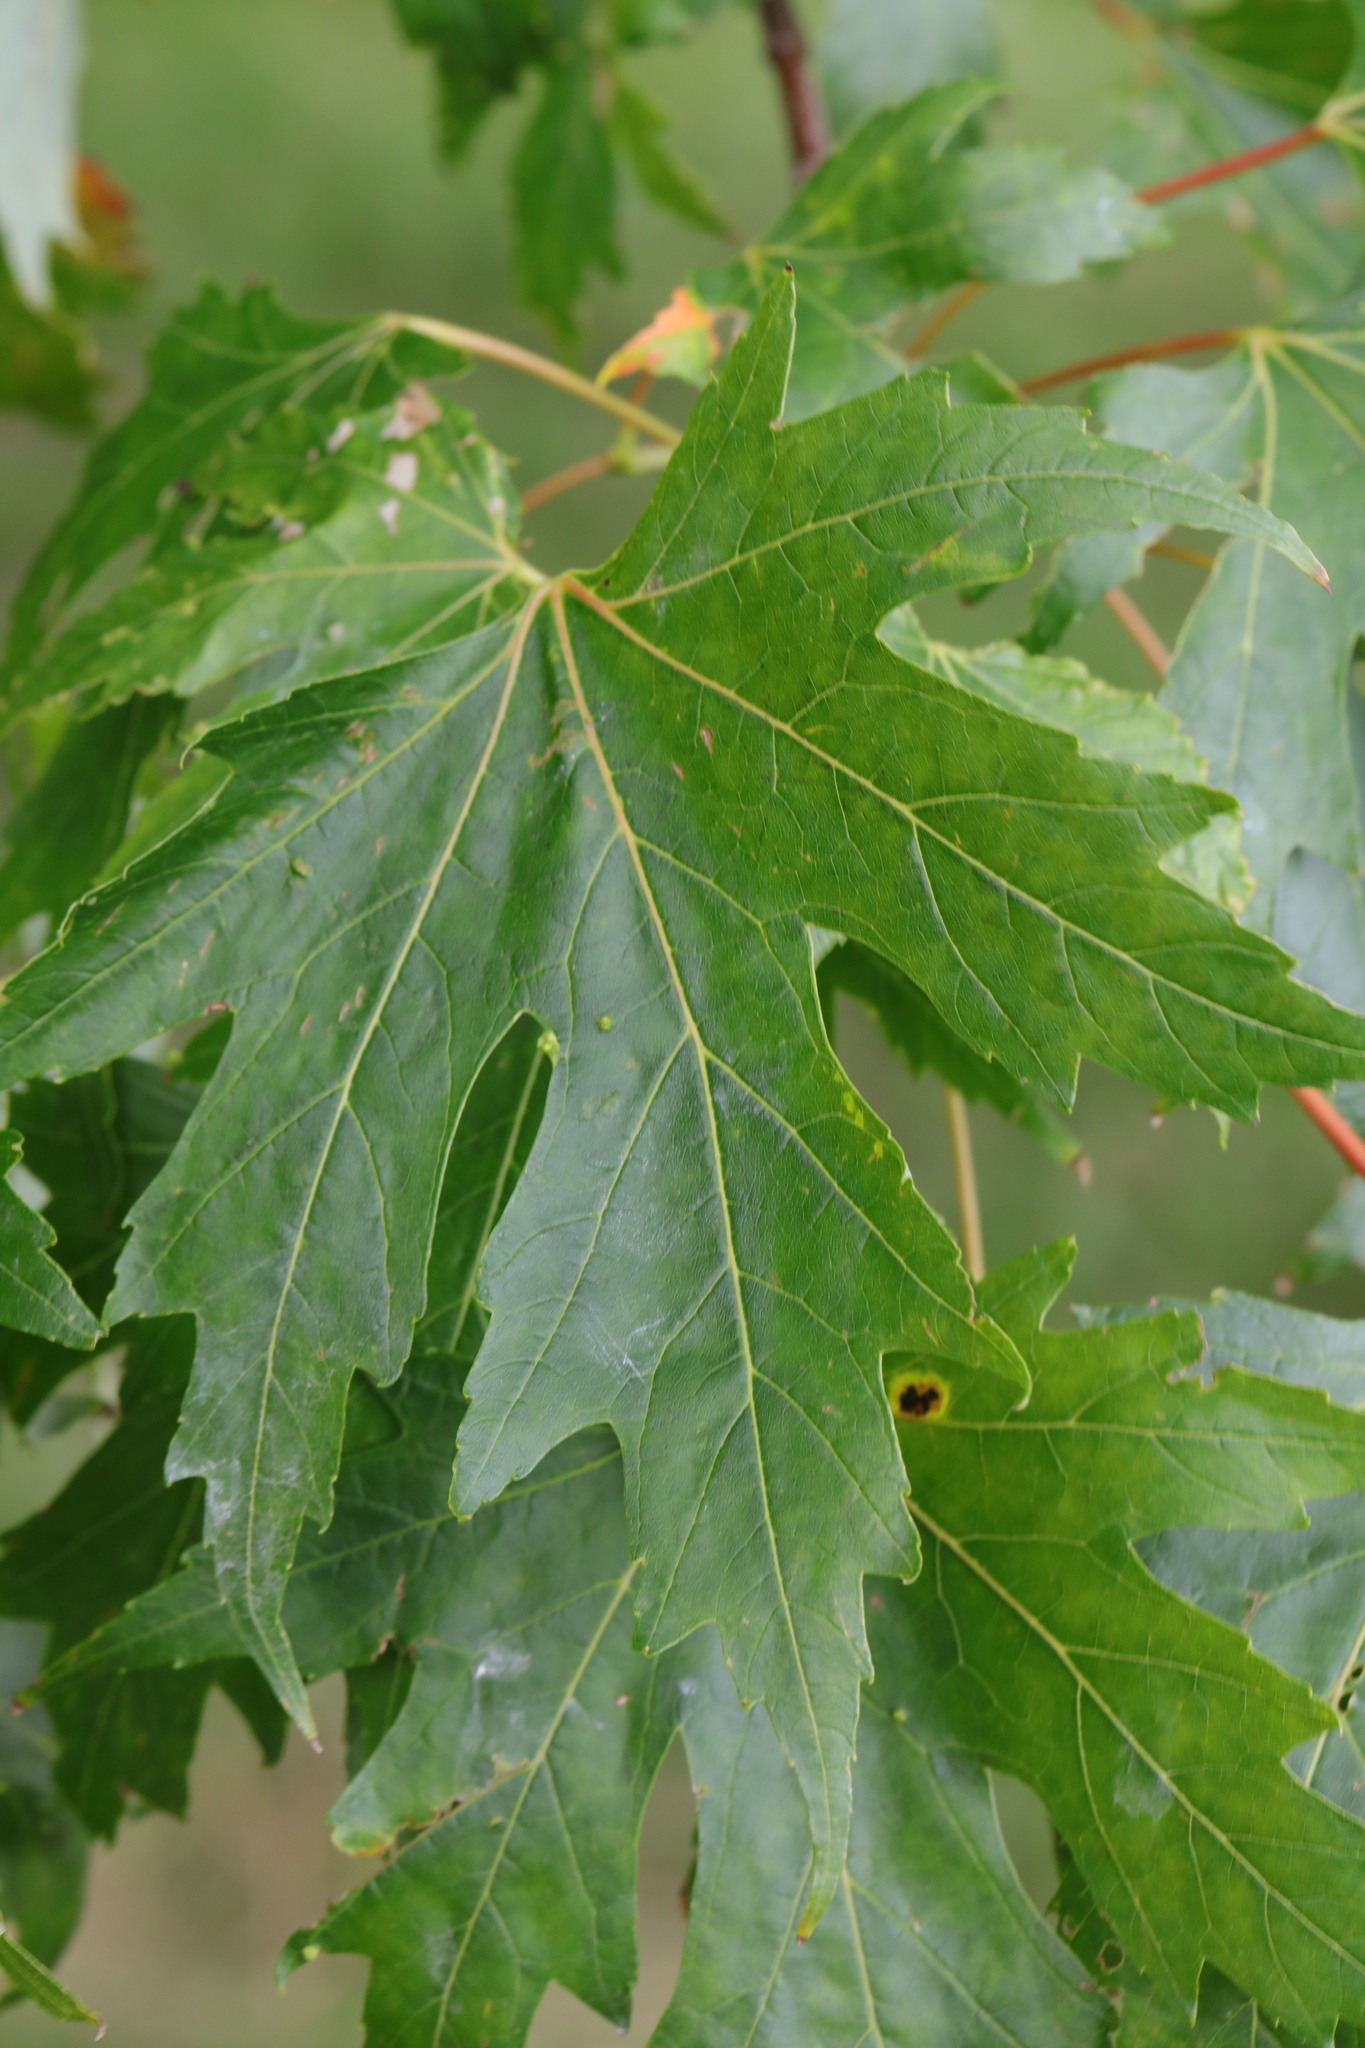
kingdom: Plantae
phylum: Tracheophyta
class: Magnoliopsida
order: Sapindales
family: Sapindaceae
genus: Acer
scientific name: Acer saccharinum
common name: Silver maple
